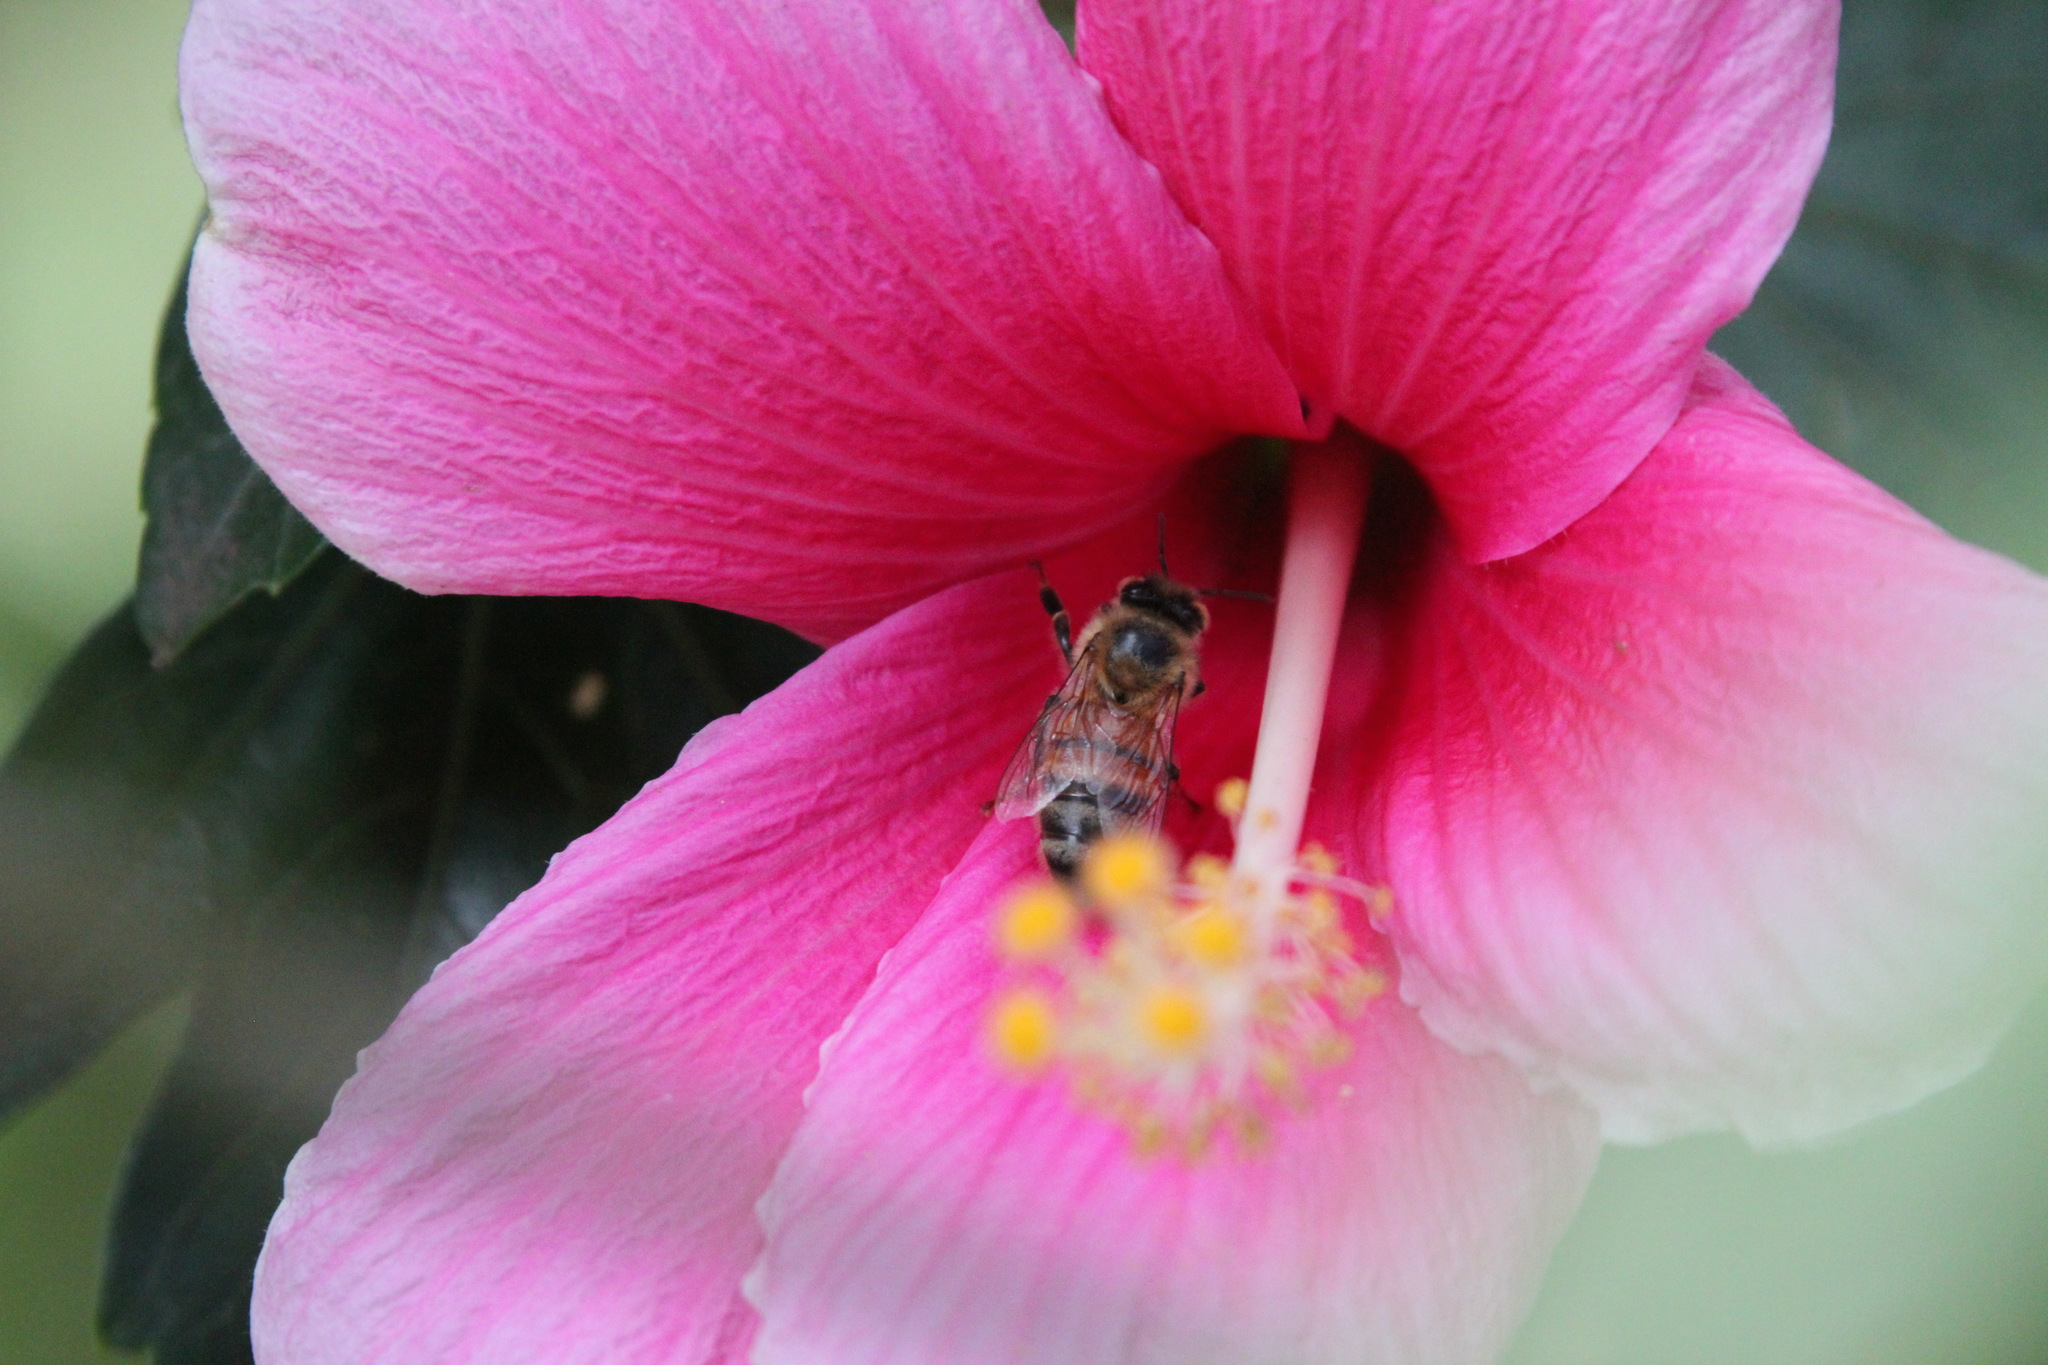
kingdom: Animalia
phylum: Arthropoda
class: Insecta
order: Hymenoptera
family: Apidae
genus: Apis
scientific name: Apis mellifera
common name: Honey bee
